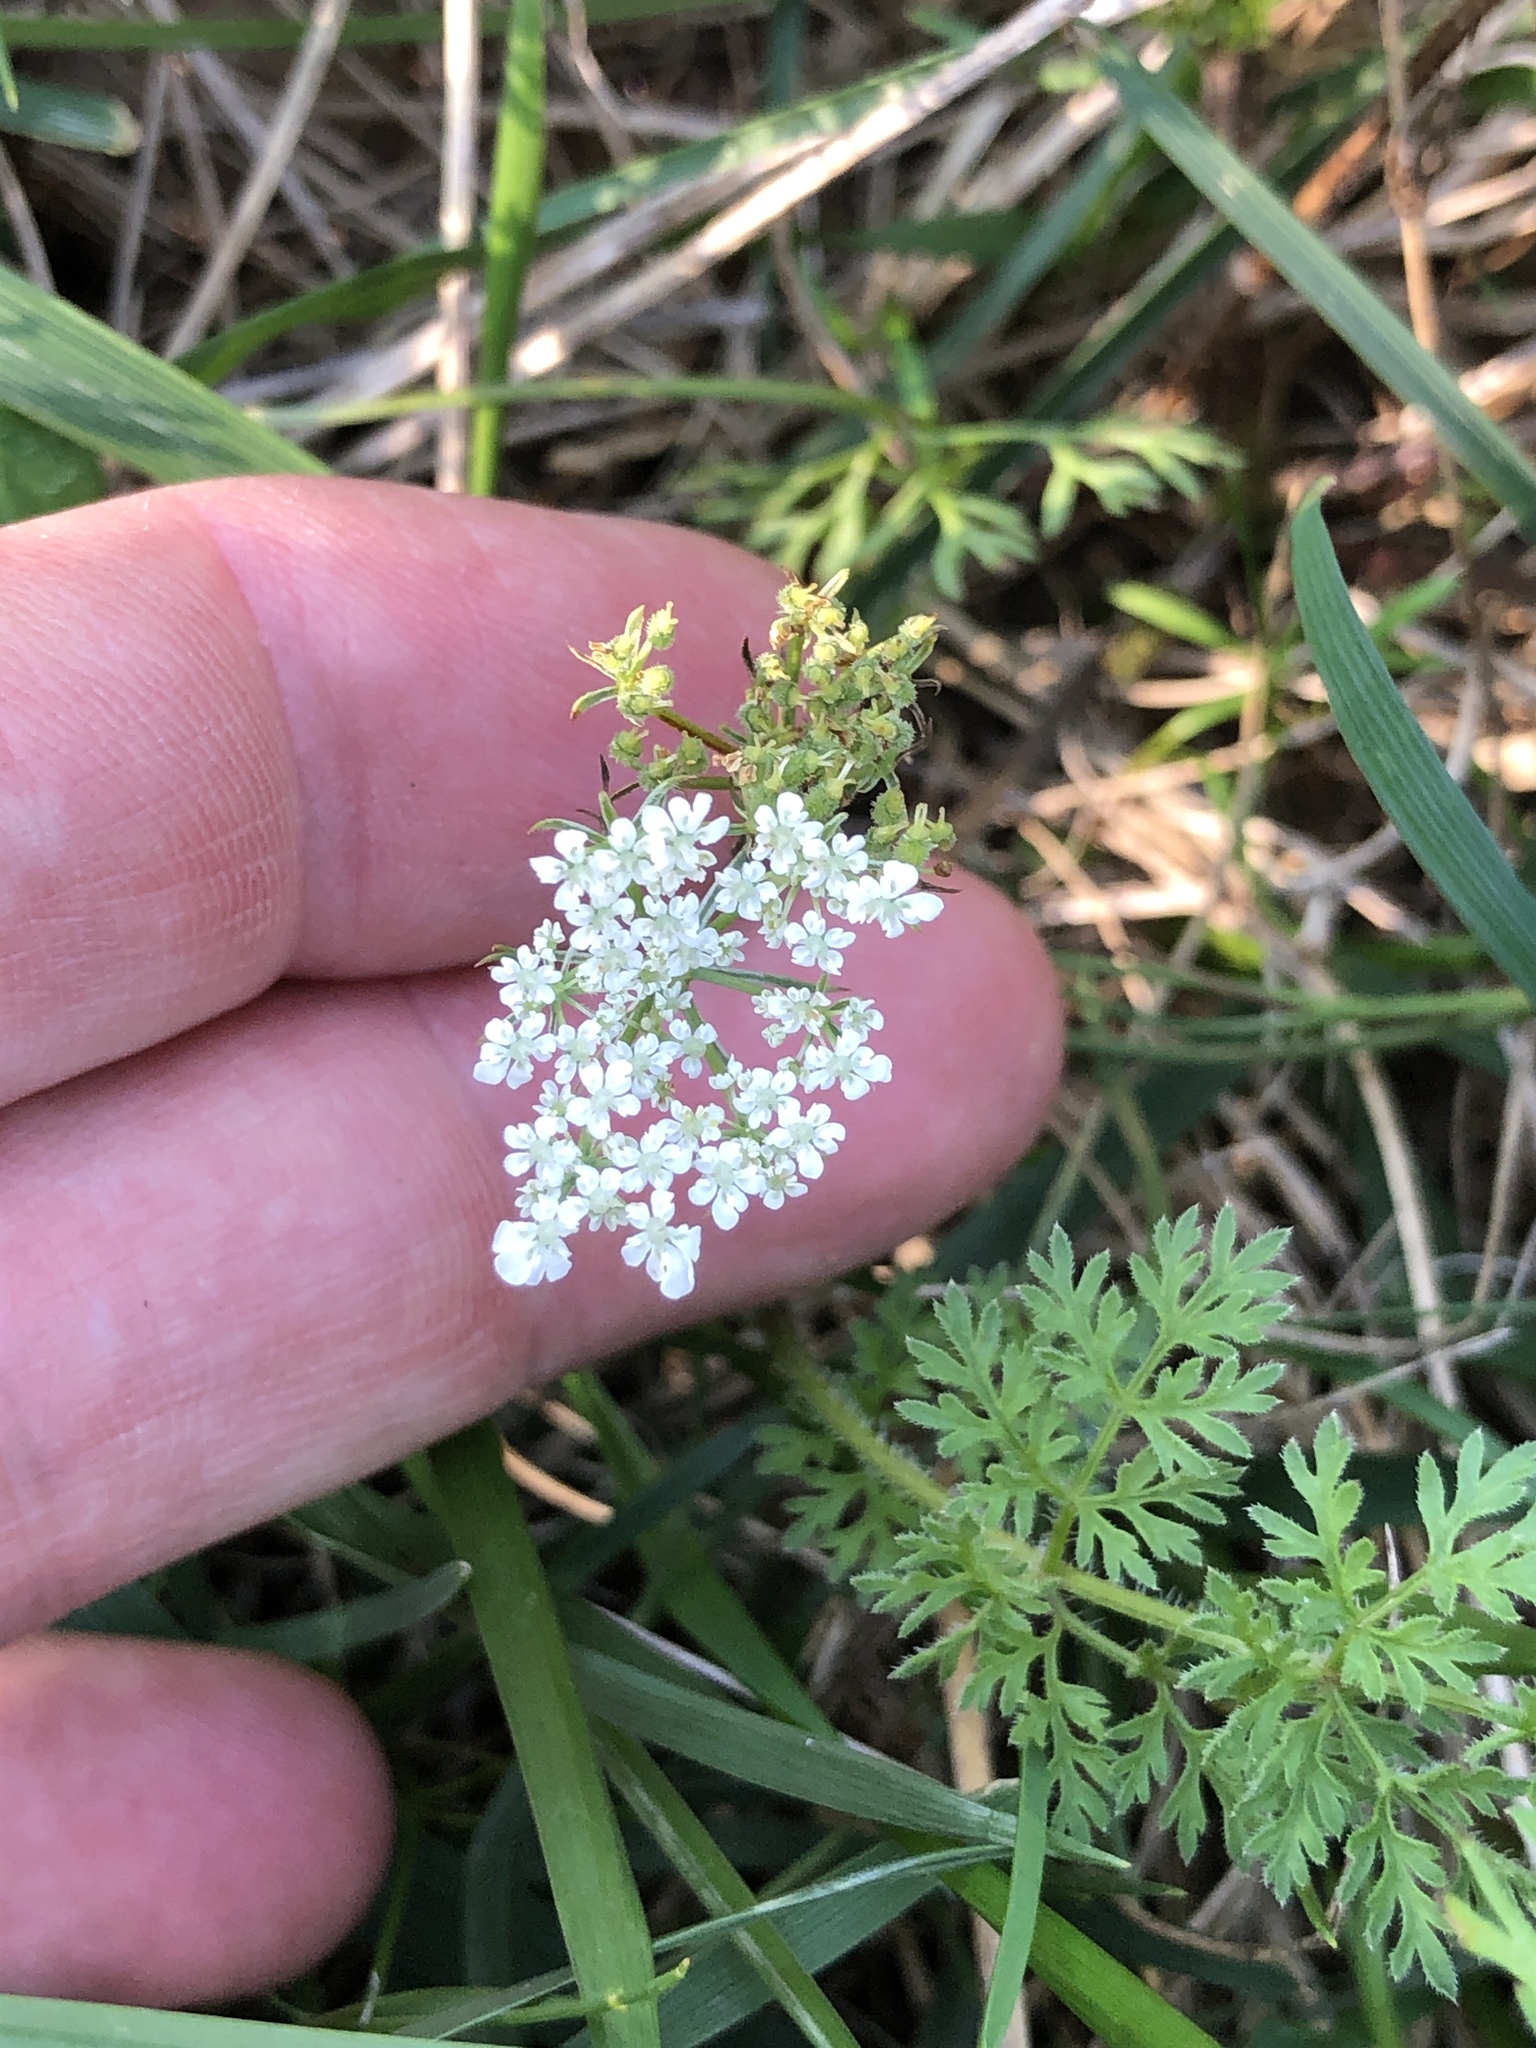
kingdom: Plantae
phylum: Tracheophyta
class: Magnoliopsida
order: Apiales
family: Apiaceae
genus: Daucus
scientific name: Daucus carota
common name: Wild carrot
